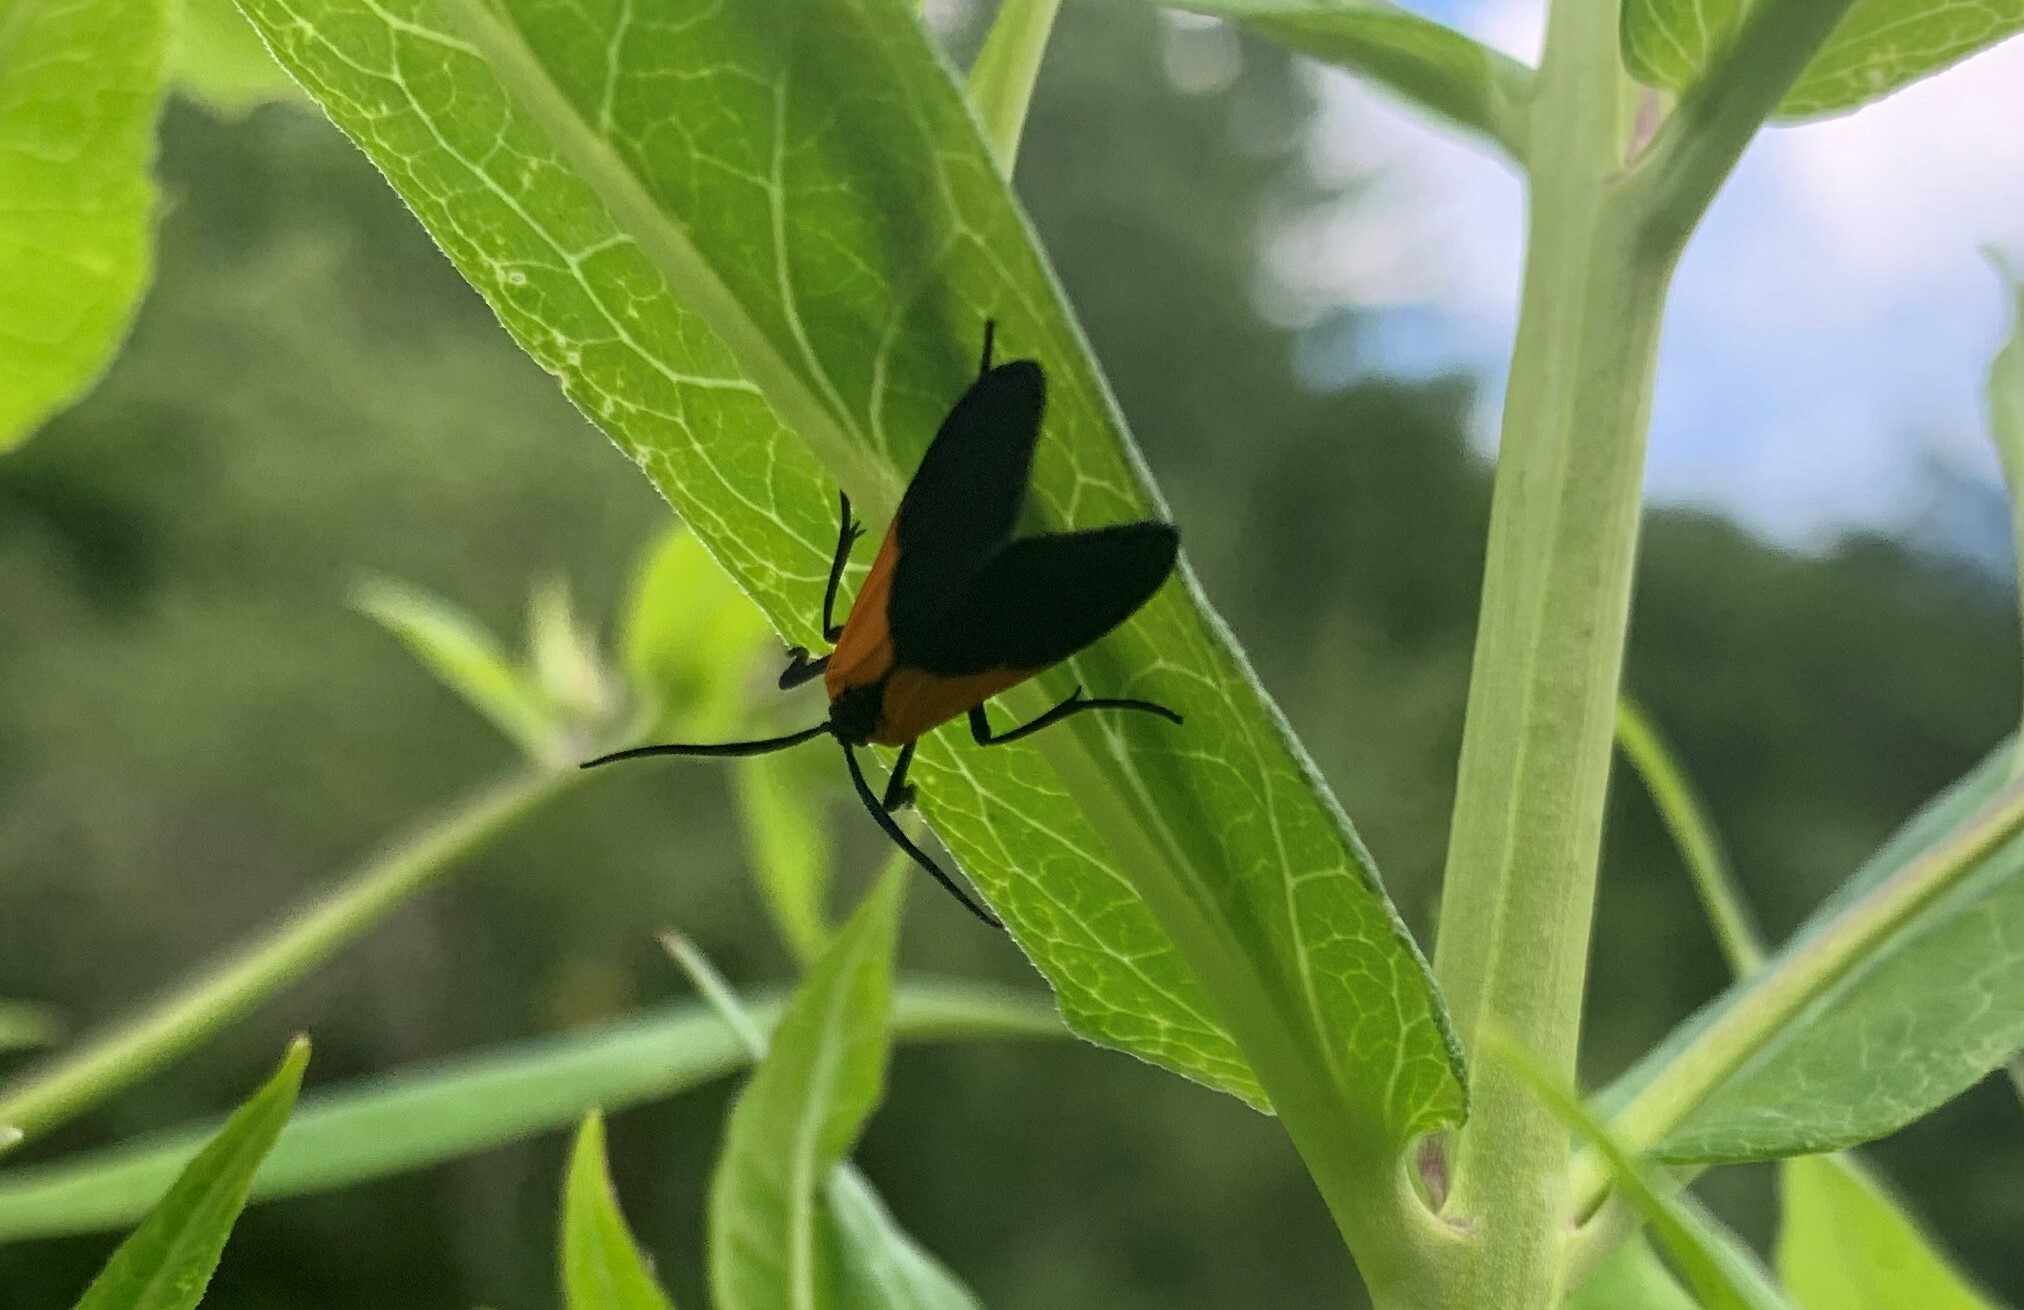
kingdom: Animalia
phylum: Arthropoda
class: Insecta
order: Lepidoptera
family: Erebidae
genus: Lycomorpha
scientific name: Lycomorpha pholus
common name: Black-and-yellow lichen moth
